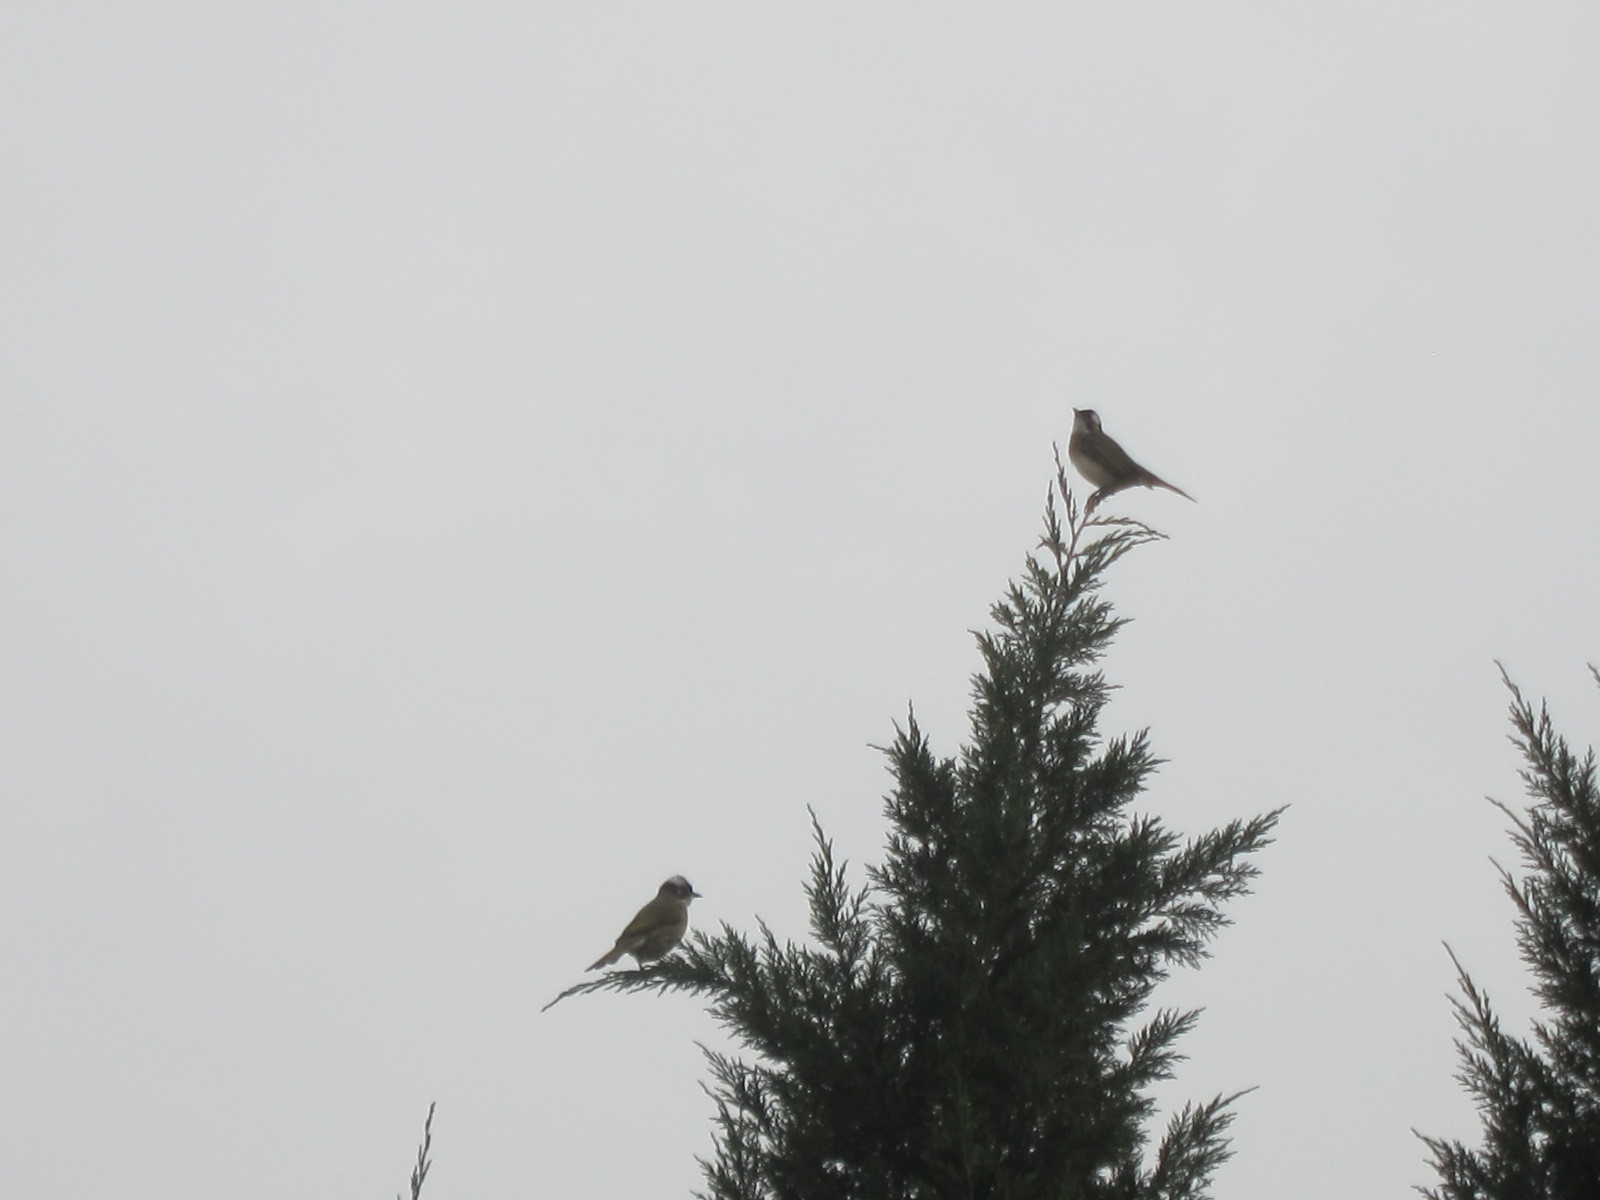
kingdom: Animalia
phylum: Chordata
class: Aves
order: Passeriformes
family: Pycnonotidae
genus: Pycnonotus
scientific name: Pycnonotus sinensis
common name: Light-vented bulbul
